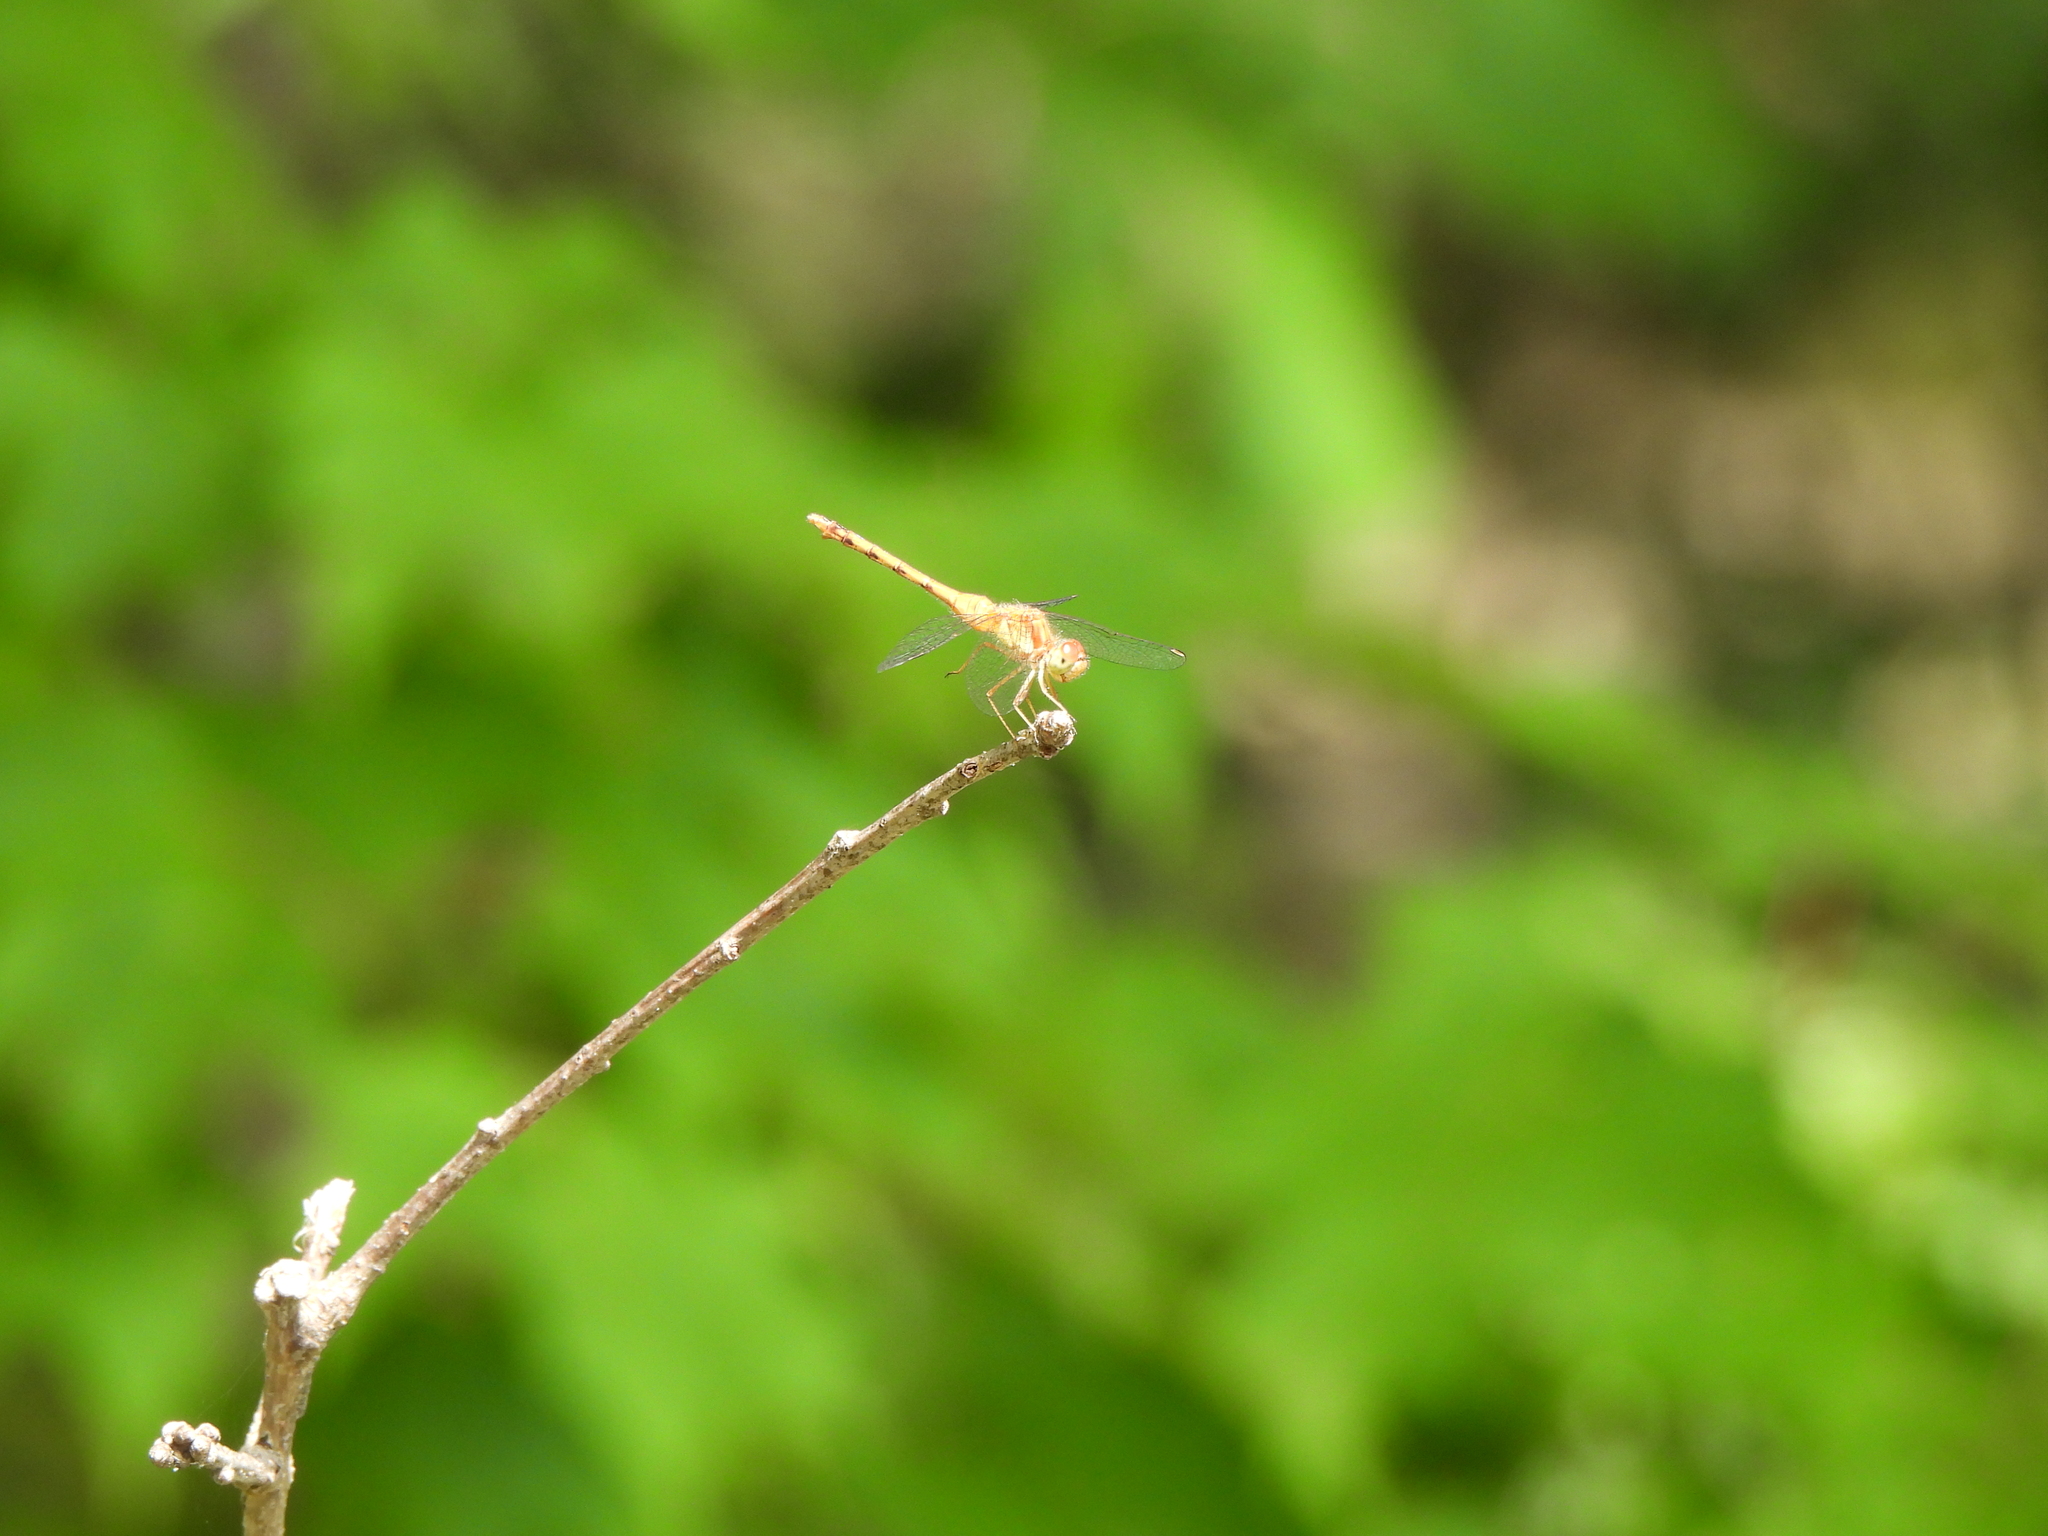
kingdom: Animalia
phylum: Arthropoda
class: Insecta
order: Odonata
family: Libellulidae
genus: Sympetrum
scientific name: Sympetrum vicinum
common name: Autumn meadowhawk
